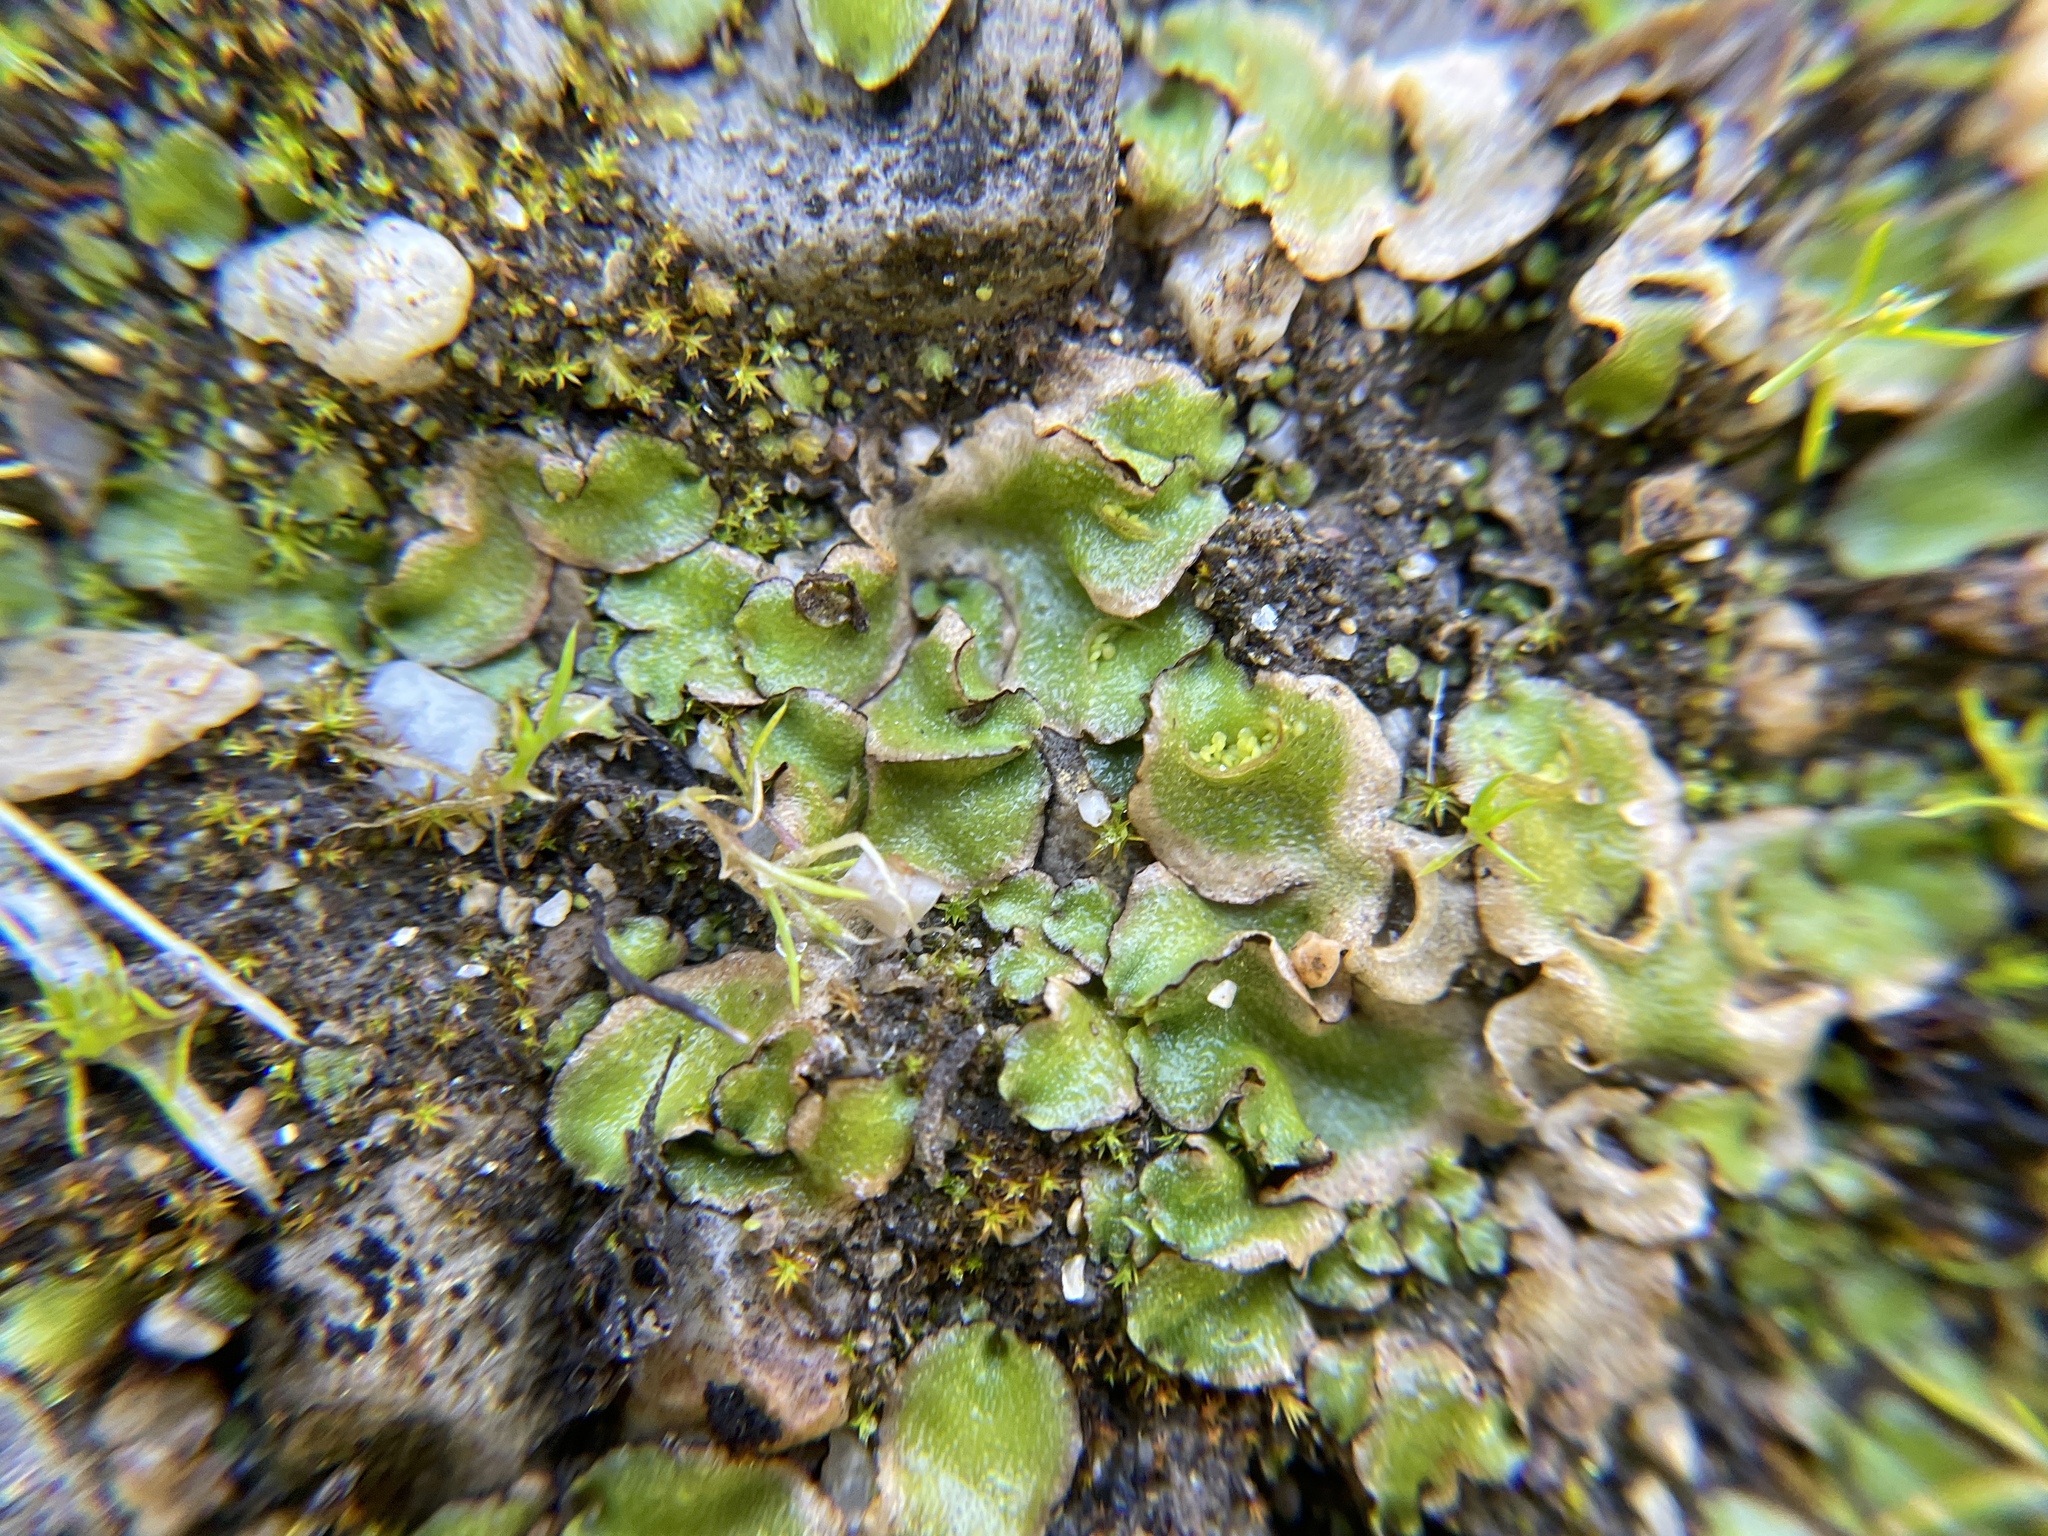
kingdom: Plantae
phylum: Marchantiophyta
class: Marchantiopsida
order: Lunulariales
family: Lunulariaceae
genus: Lunularia
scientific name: Lunularia cruciata
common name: Crescent-cup liverwort
